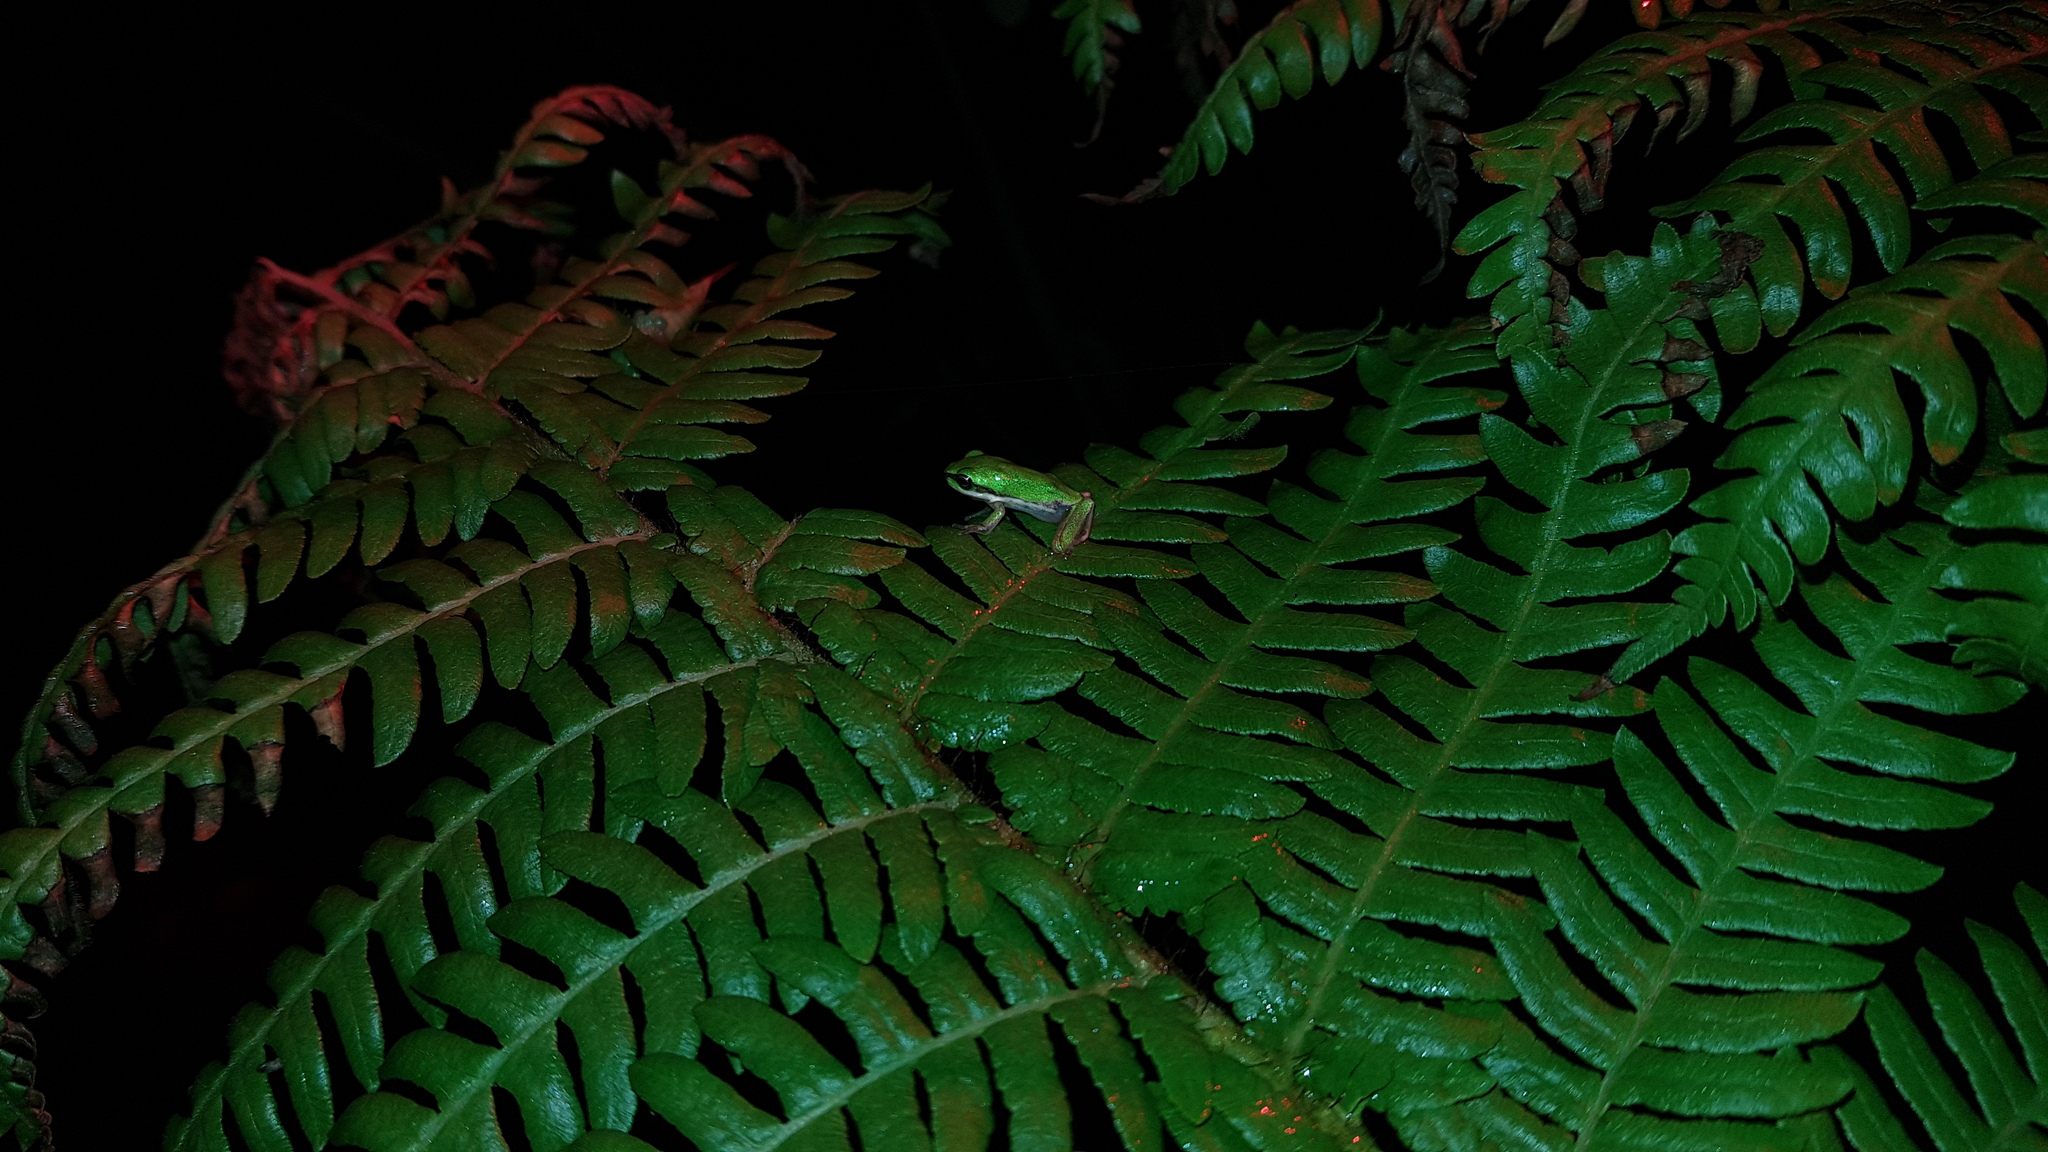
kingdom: Animalia
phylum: Chordata
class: Amphibia
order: Anura
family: Pelodryadidae
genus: Litoria
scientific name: Litoria fallax
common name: Eastern dwarf treefrog
